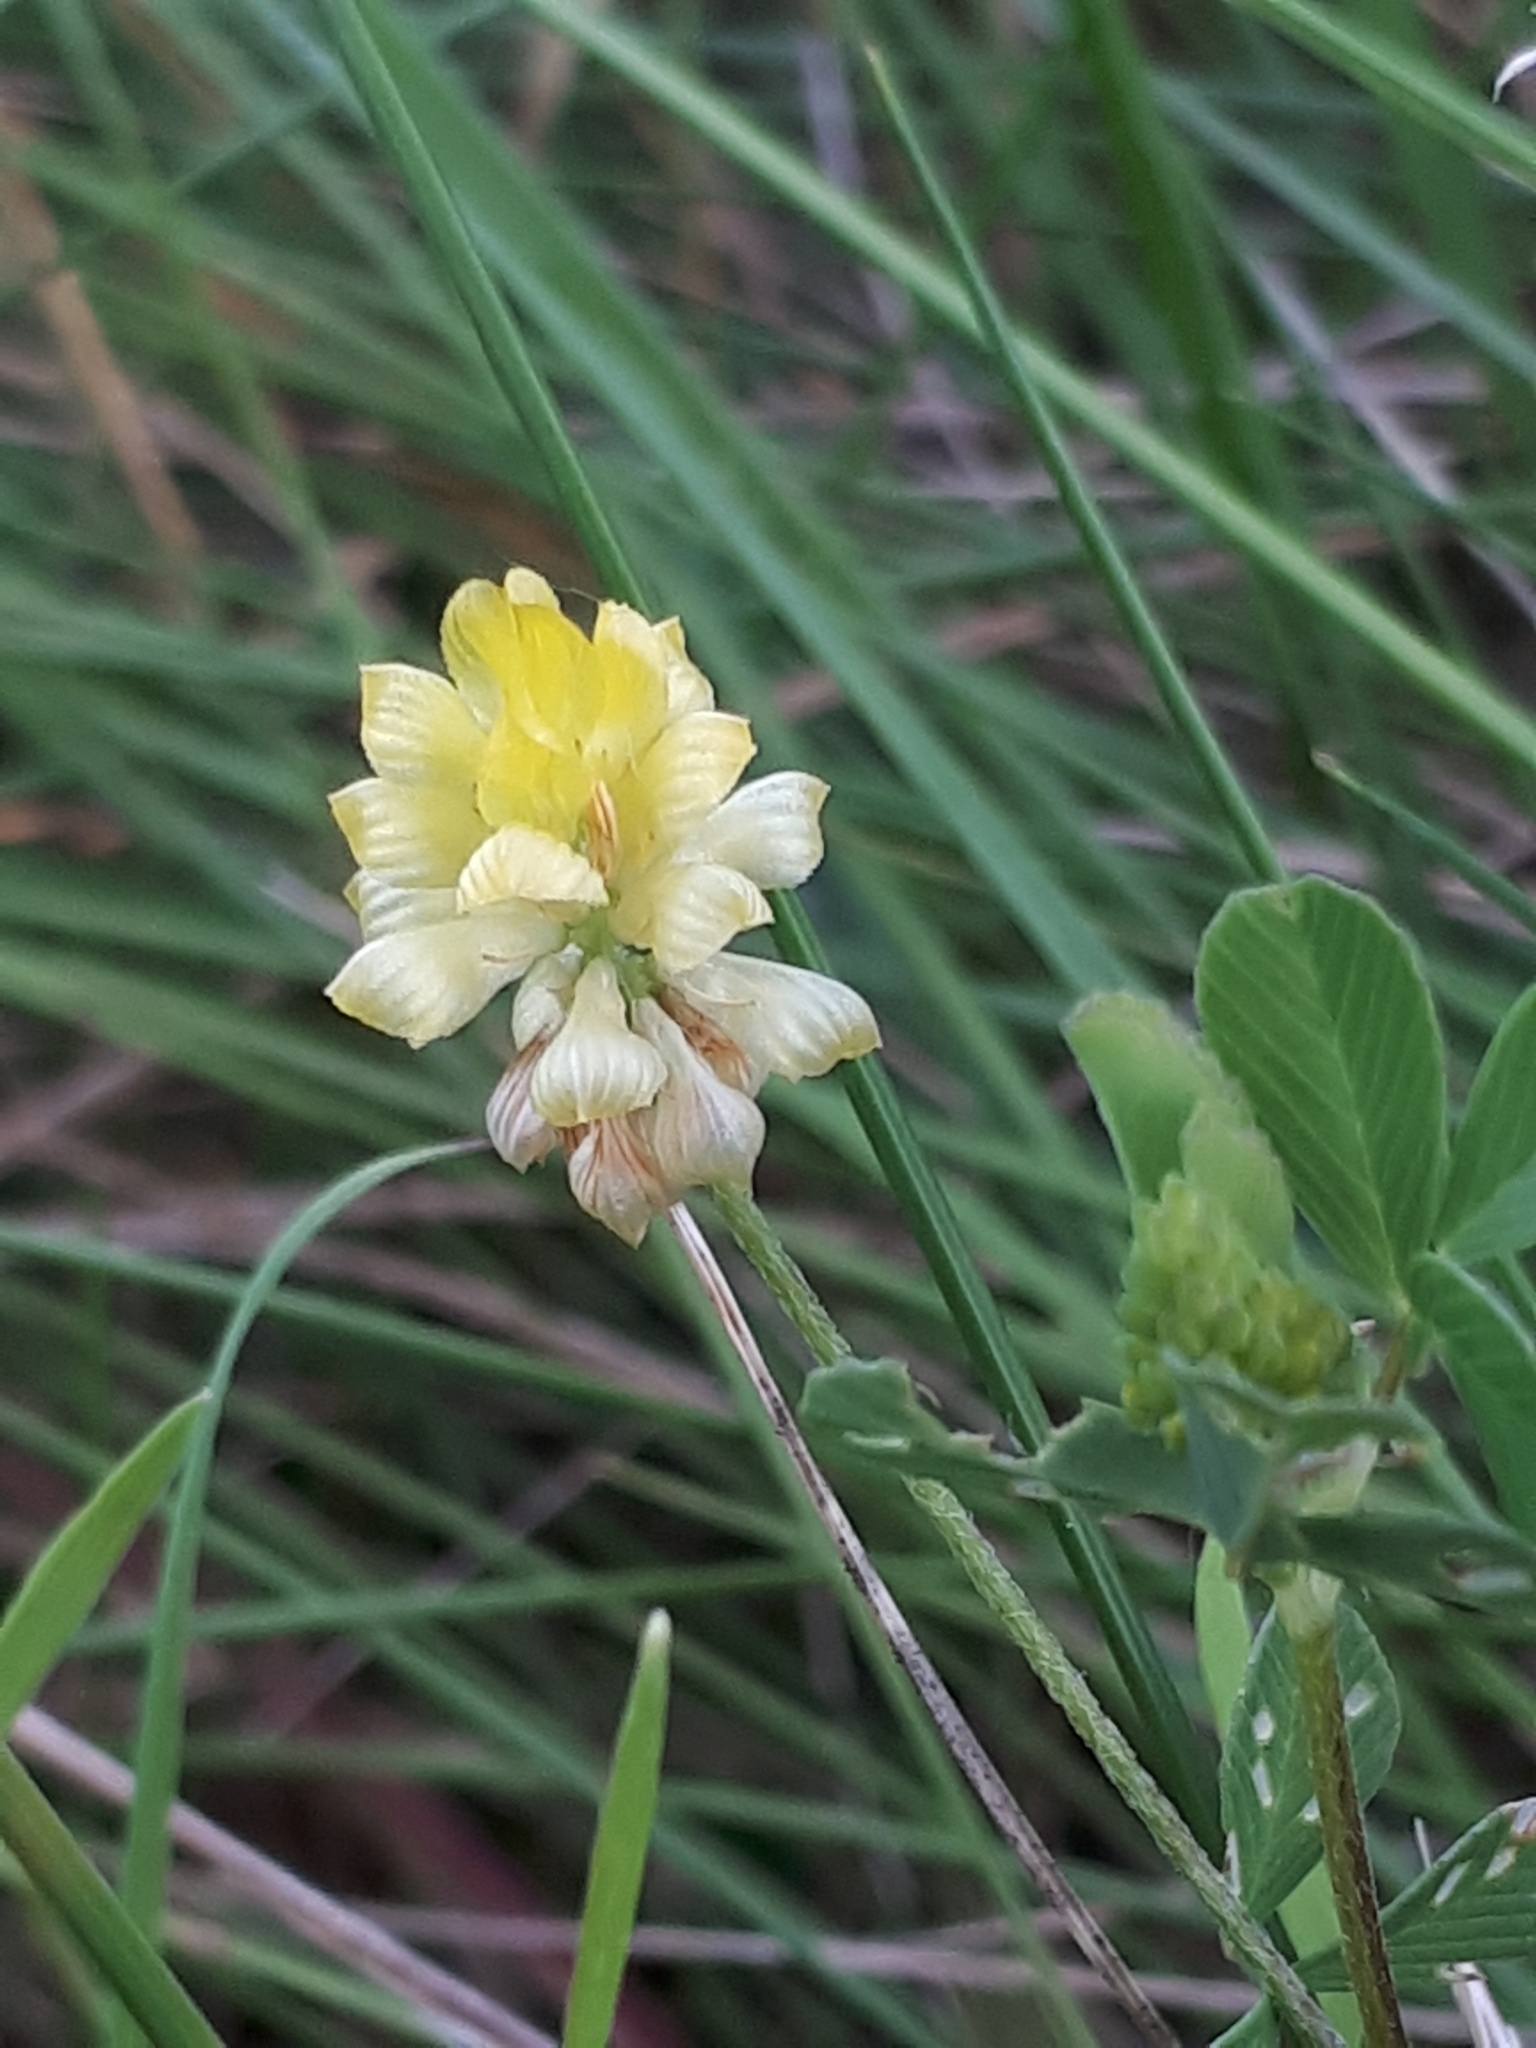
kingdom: Plantae
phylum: Tracheophyta
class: Magnoliopsida
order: Fabales
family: Fabaceae
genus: Trifolium
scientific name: Trifolium campestre
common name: Field clover
